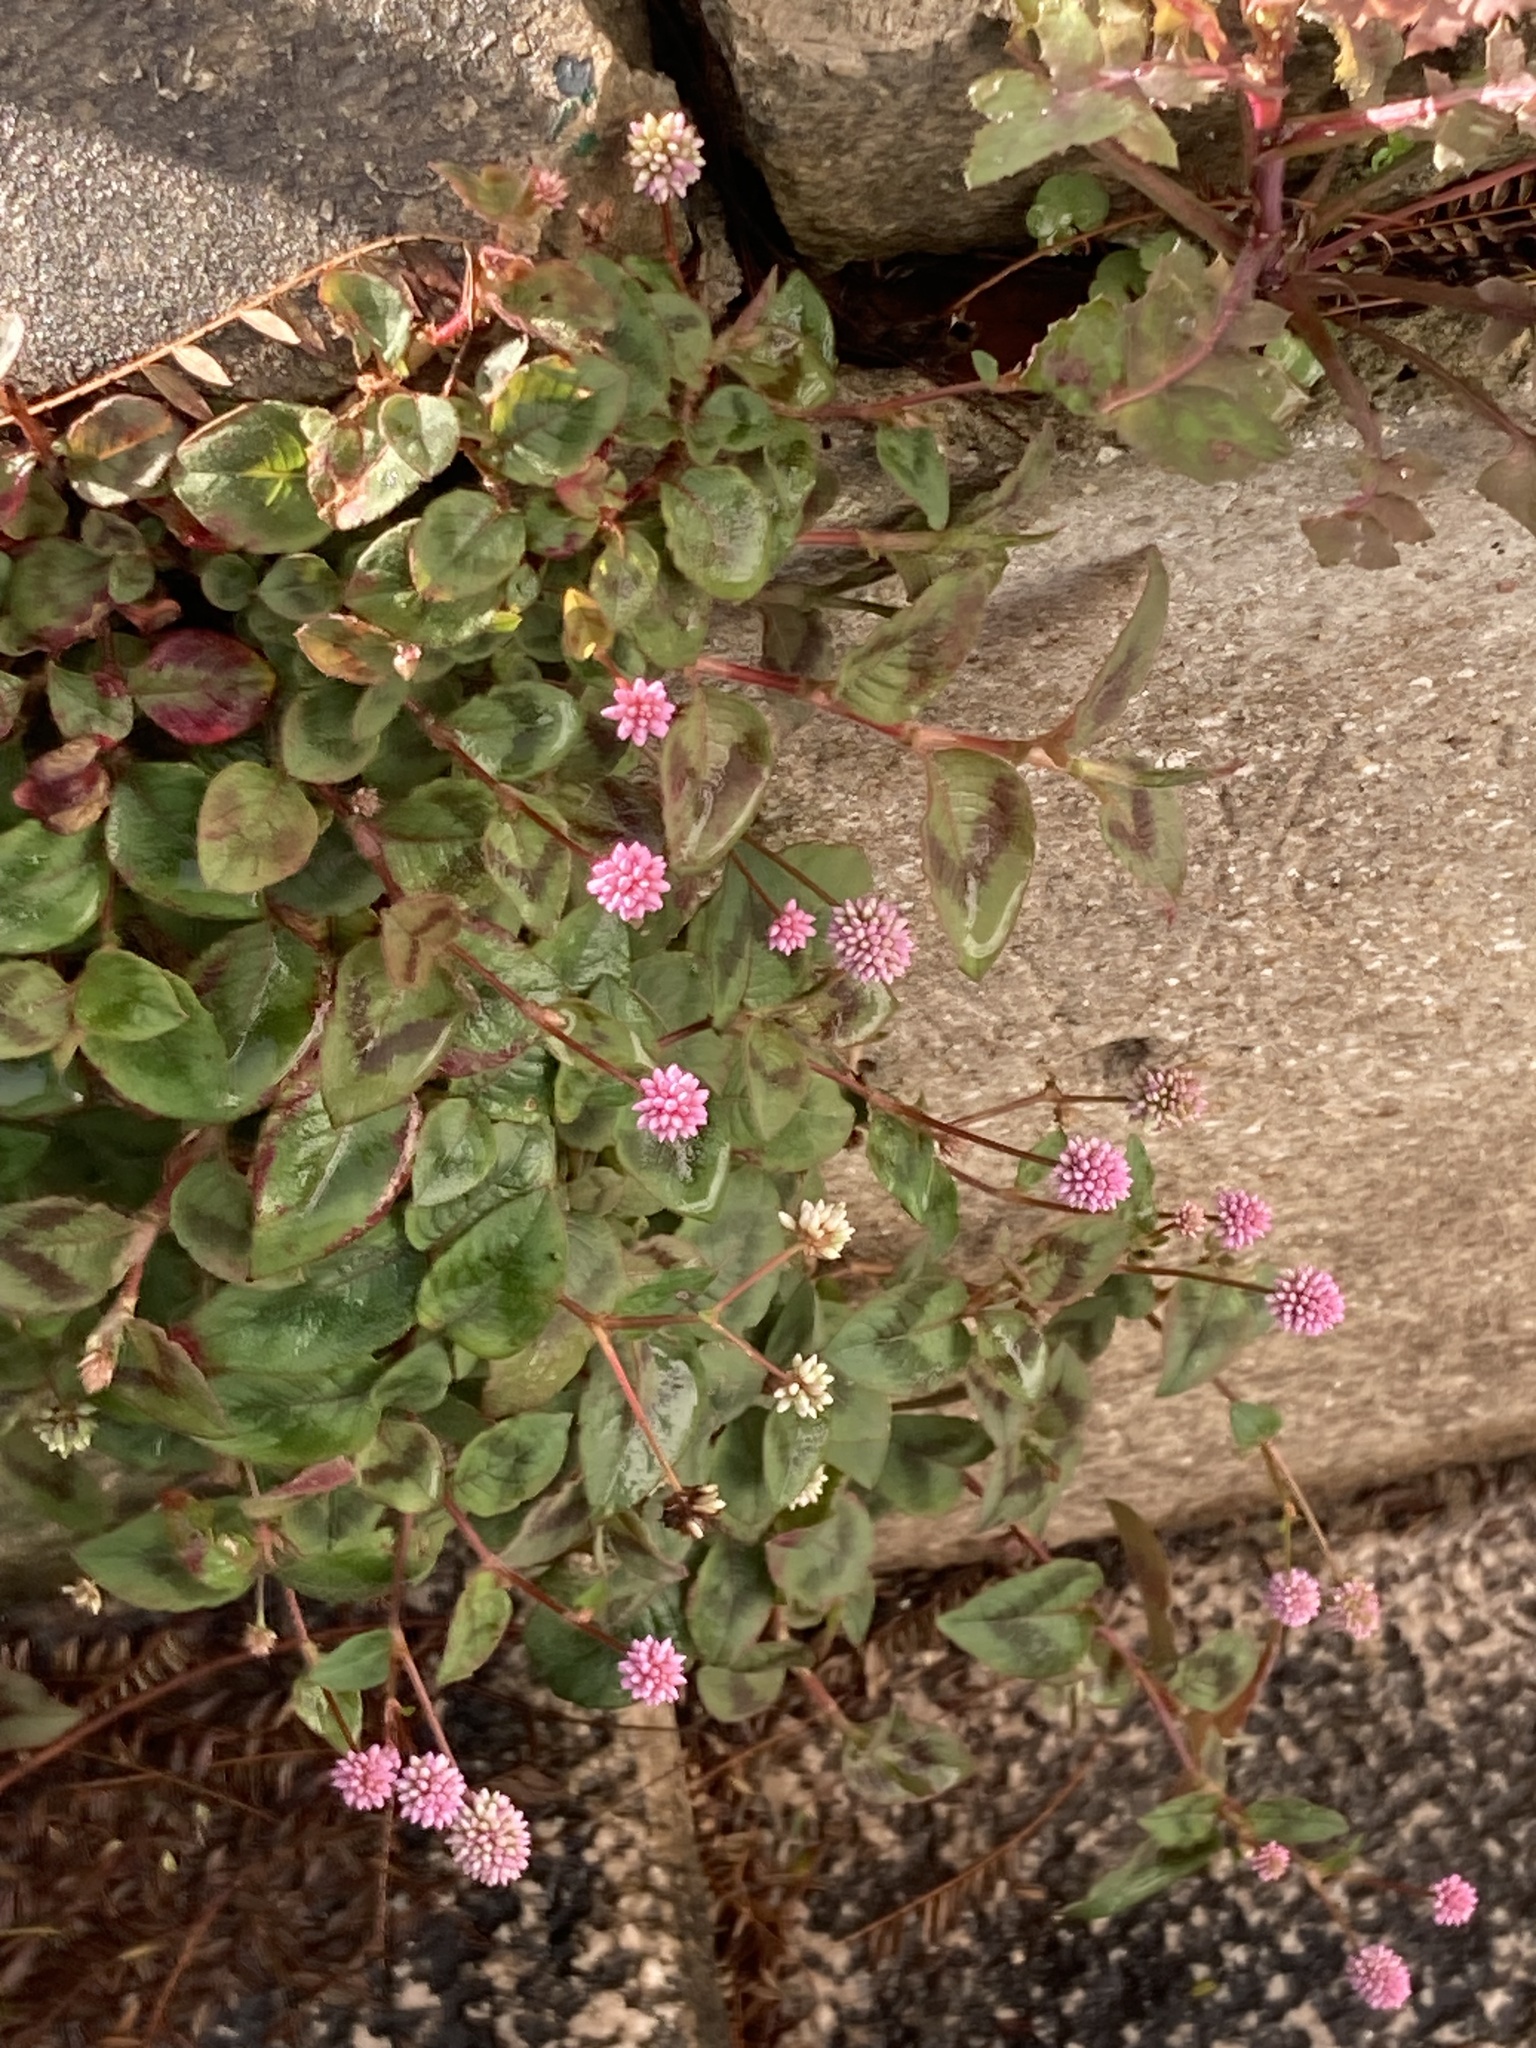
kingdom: Plantae
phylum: Tracheophyta
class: Magnoliopsida
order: Caryophyllales
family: Polygonaceae
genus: Persicaria
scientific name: Persicaria capitata
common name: Pinkhead smartweed
